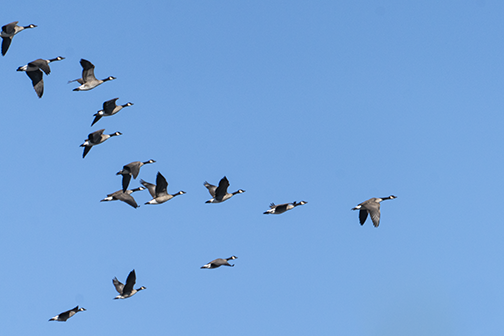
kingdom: Animalia
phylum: Chordata
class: Aves
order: Anseriformes
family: Anatidae
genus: Branta
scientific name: Branta canadensis
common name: Canada goose
